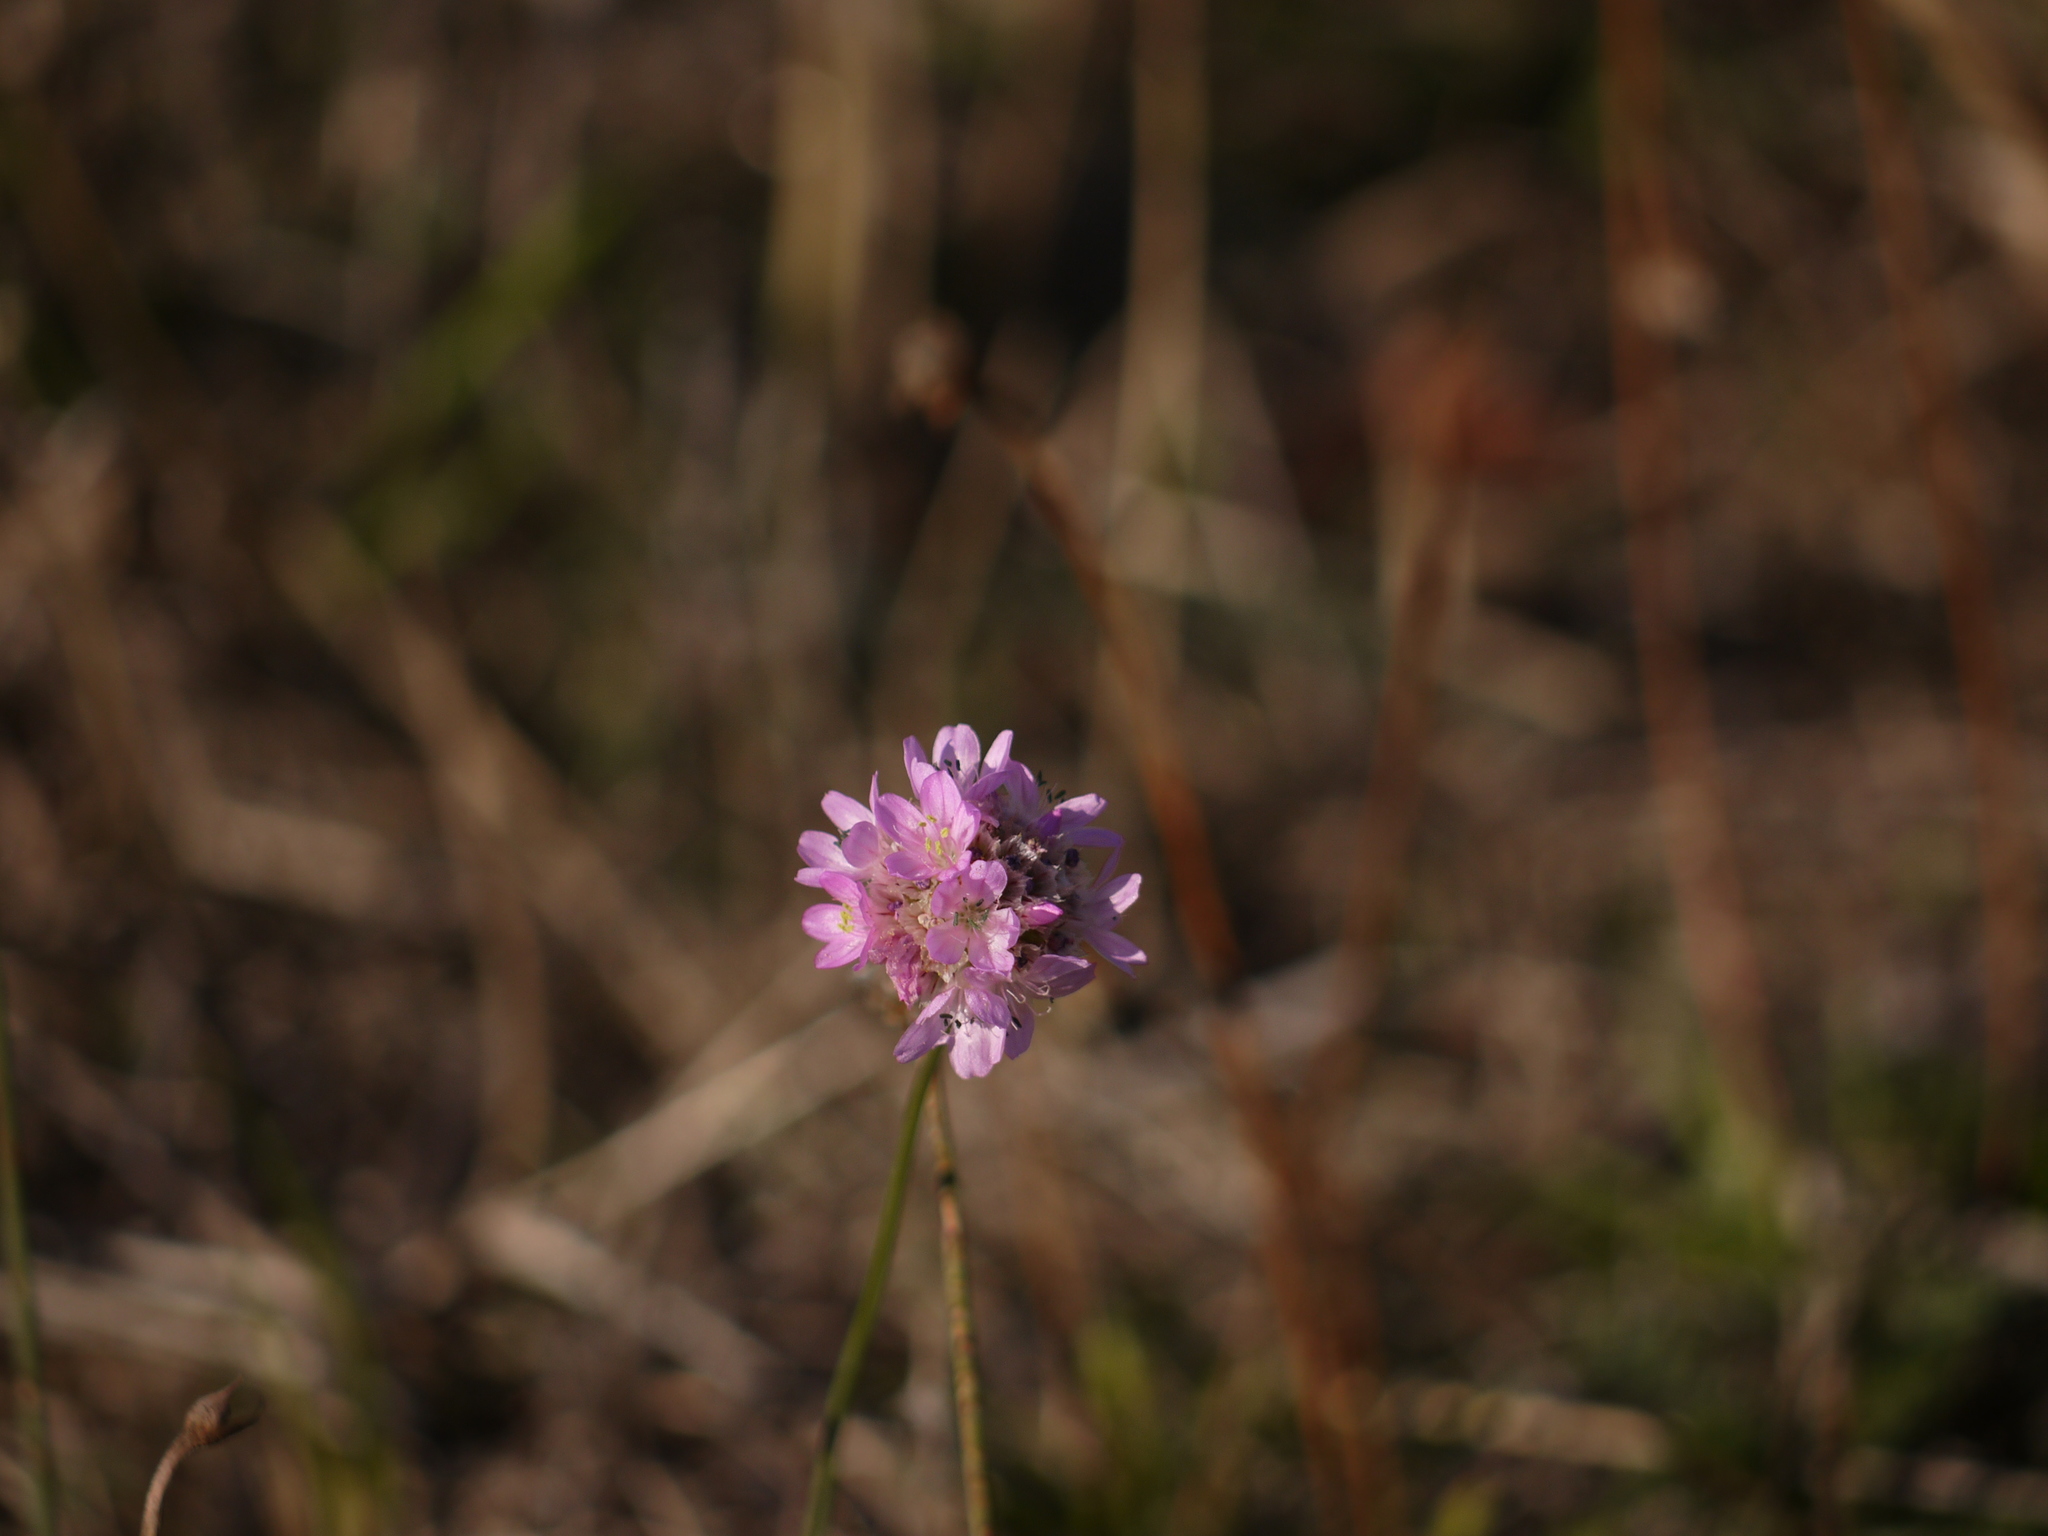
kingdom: Plantae
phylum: Tracheophyta
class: Magnoliopsida
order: Caryophyllales
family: Plumbaginaceae
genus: Armeria
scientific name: Armeria maritima
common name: Thrift
